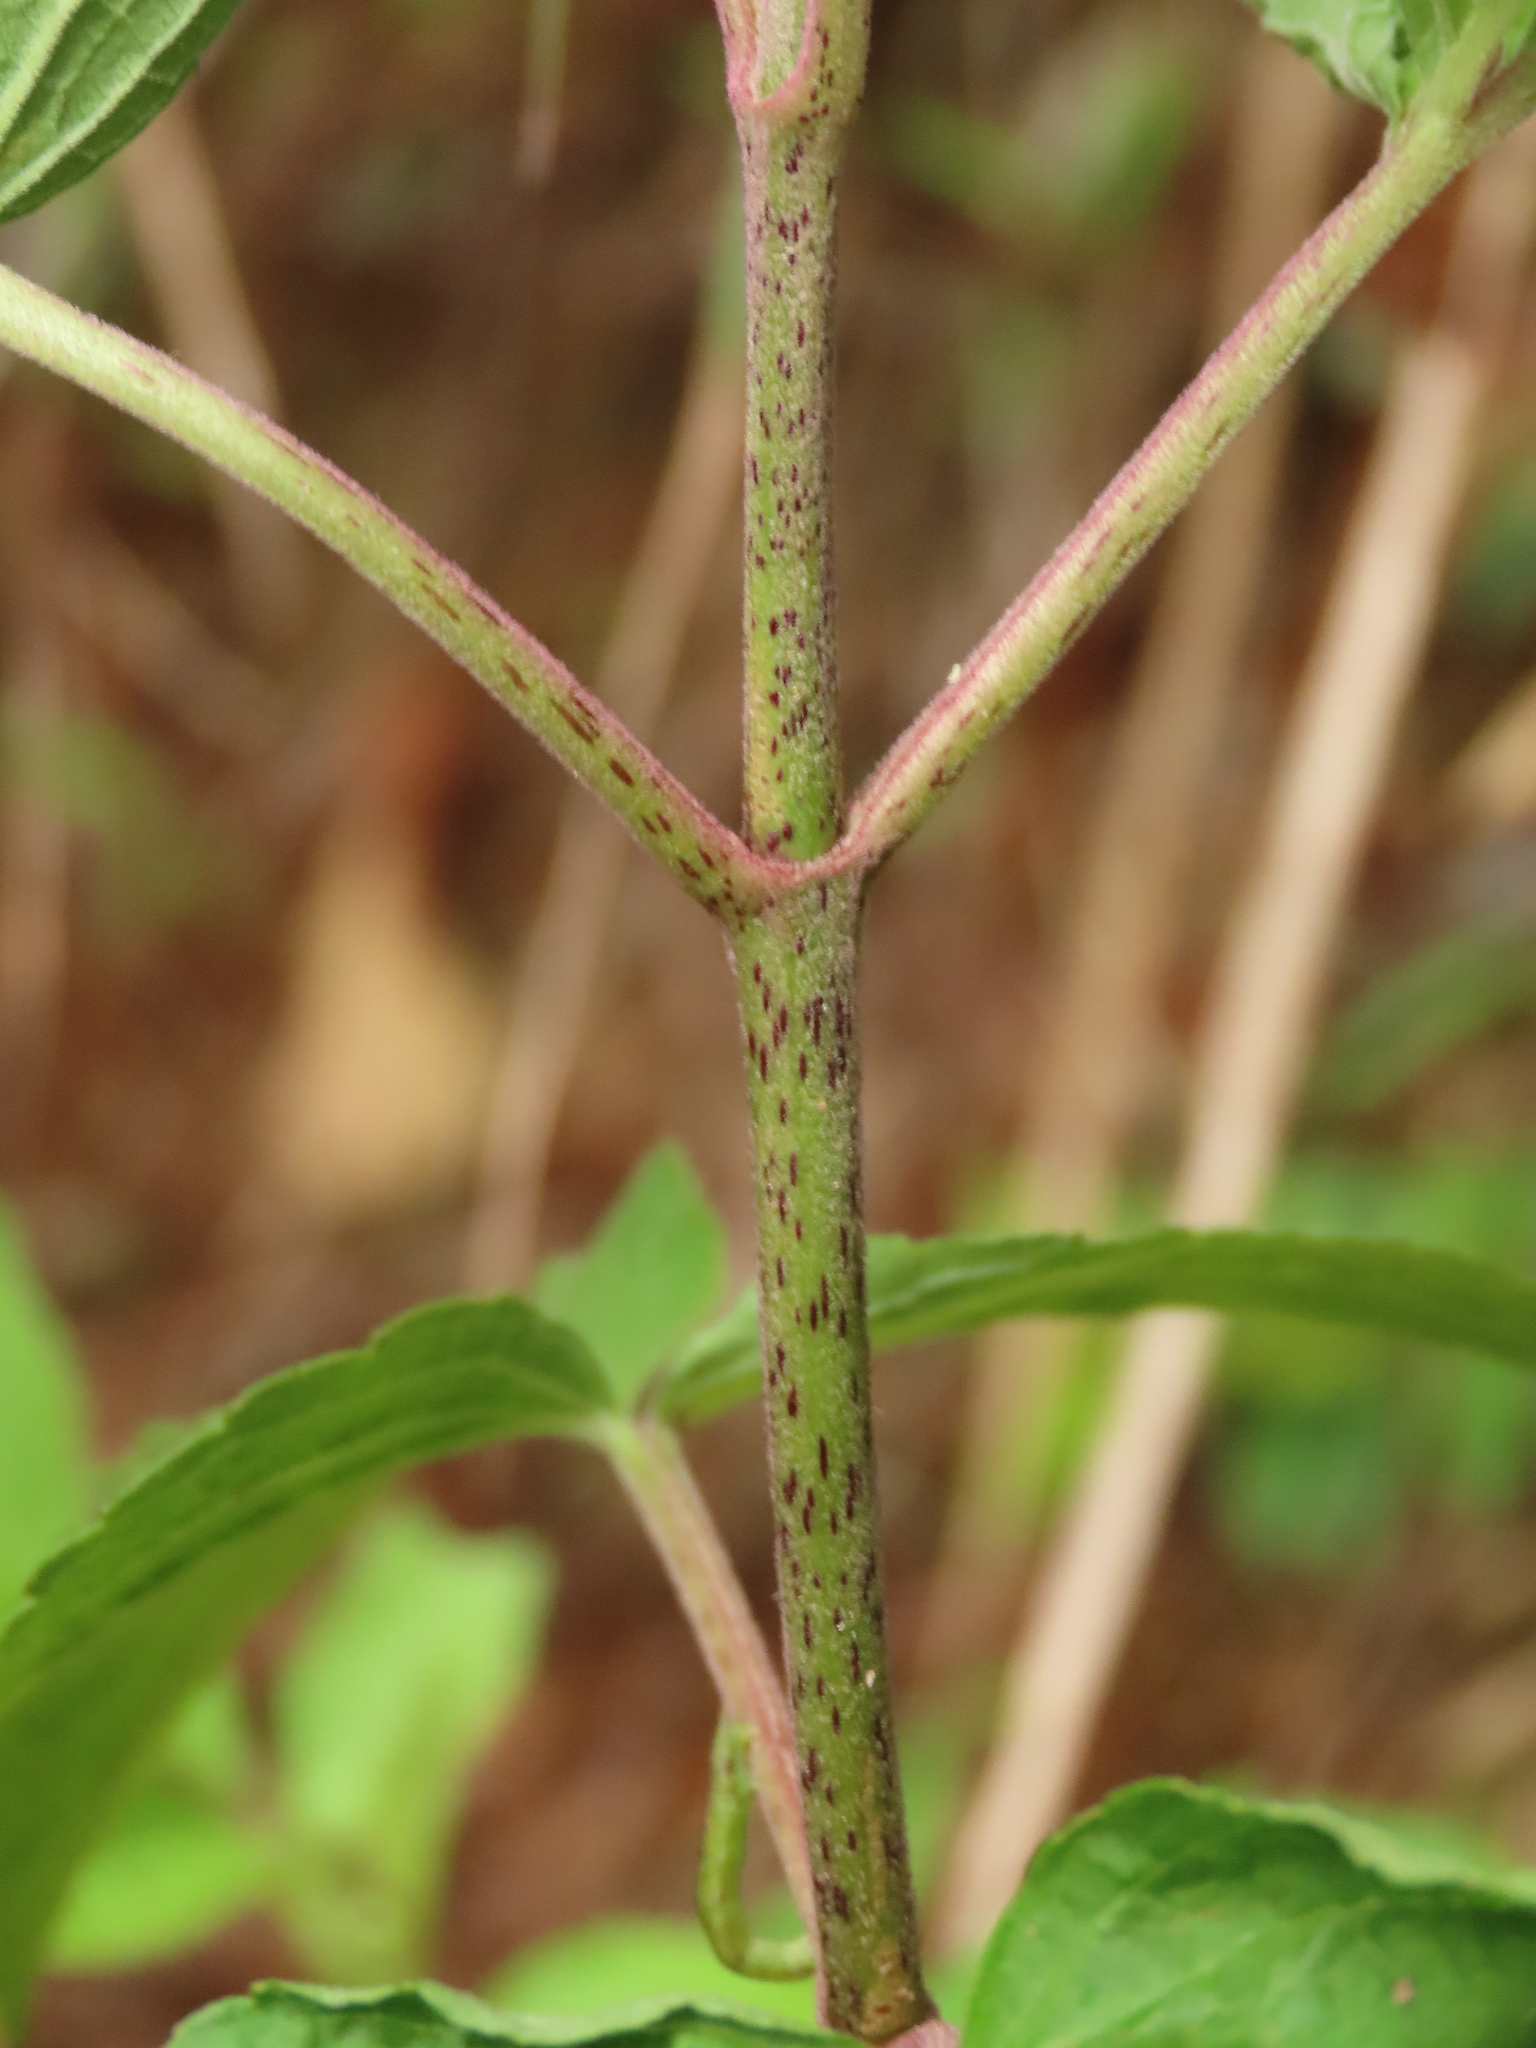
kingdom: Plantae
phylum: Tracheophyta
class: Magnoliopsida
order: Asterales
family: Asteraceae
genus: Eupatorium
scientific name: Eupatorium formosanum
